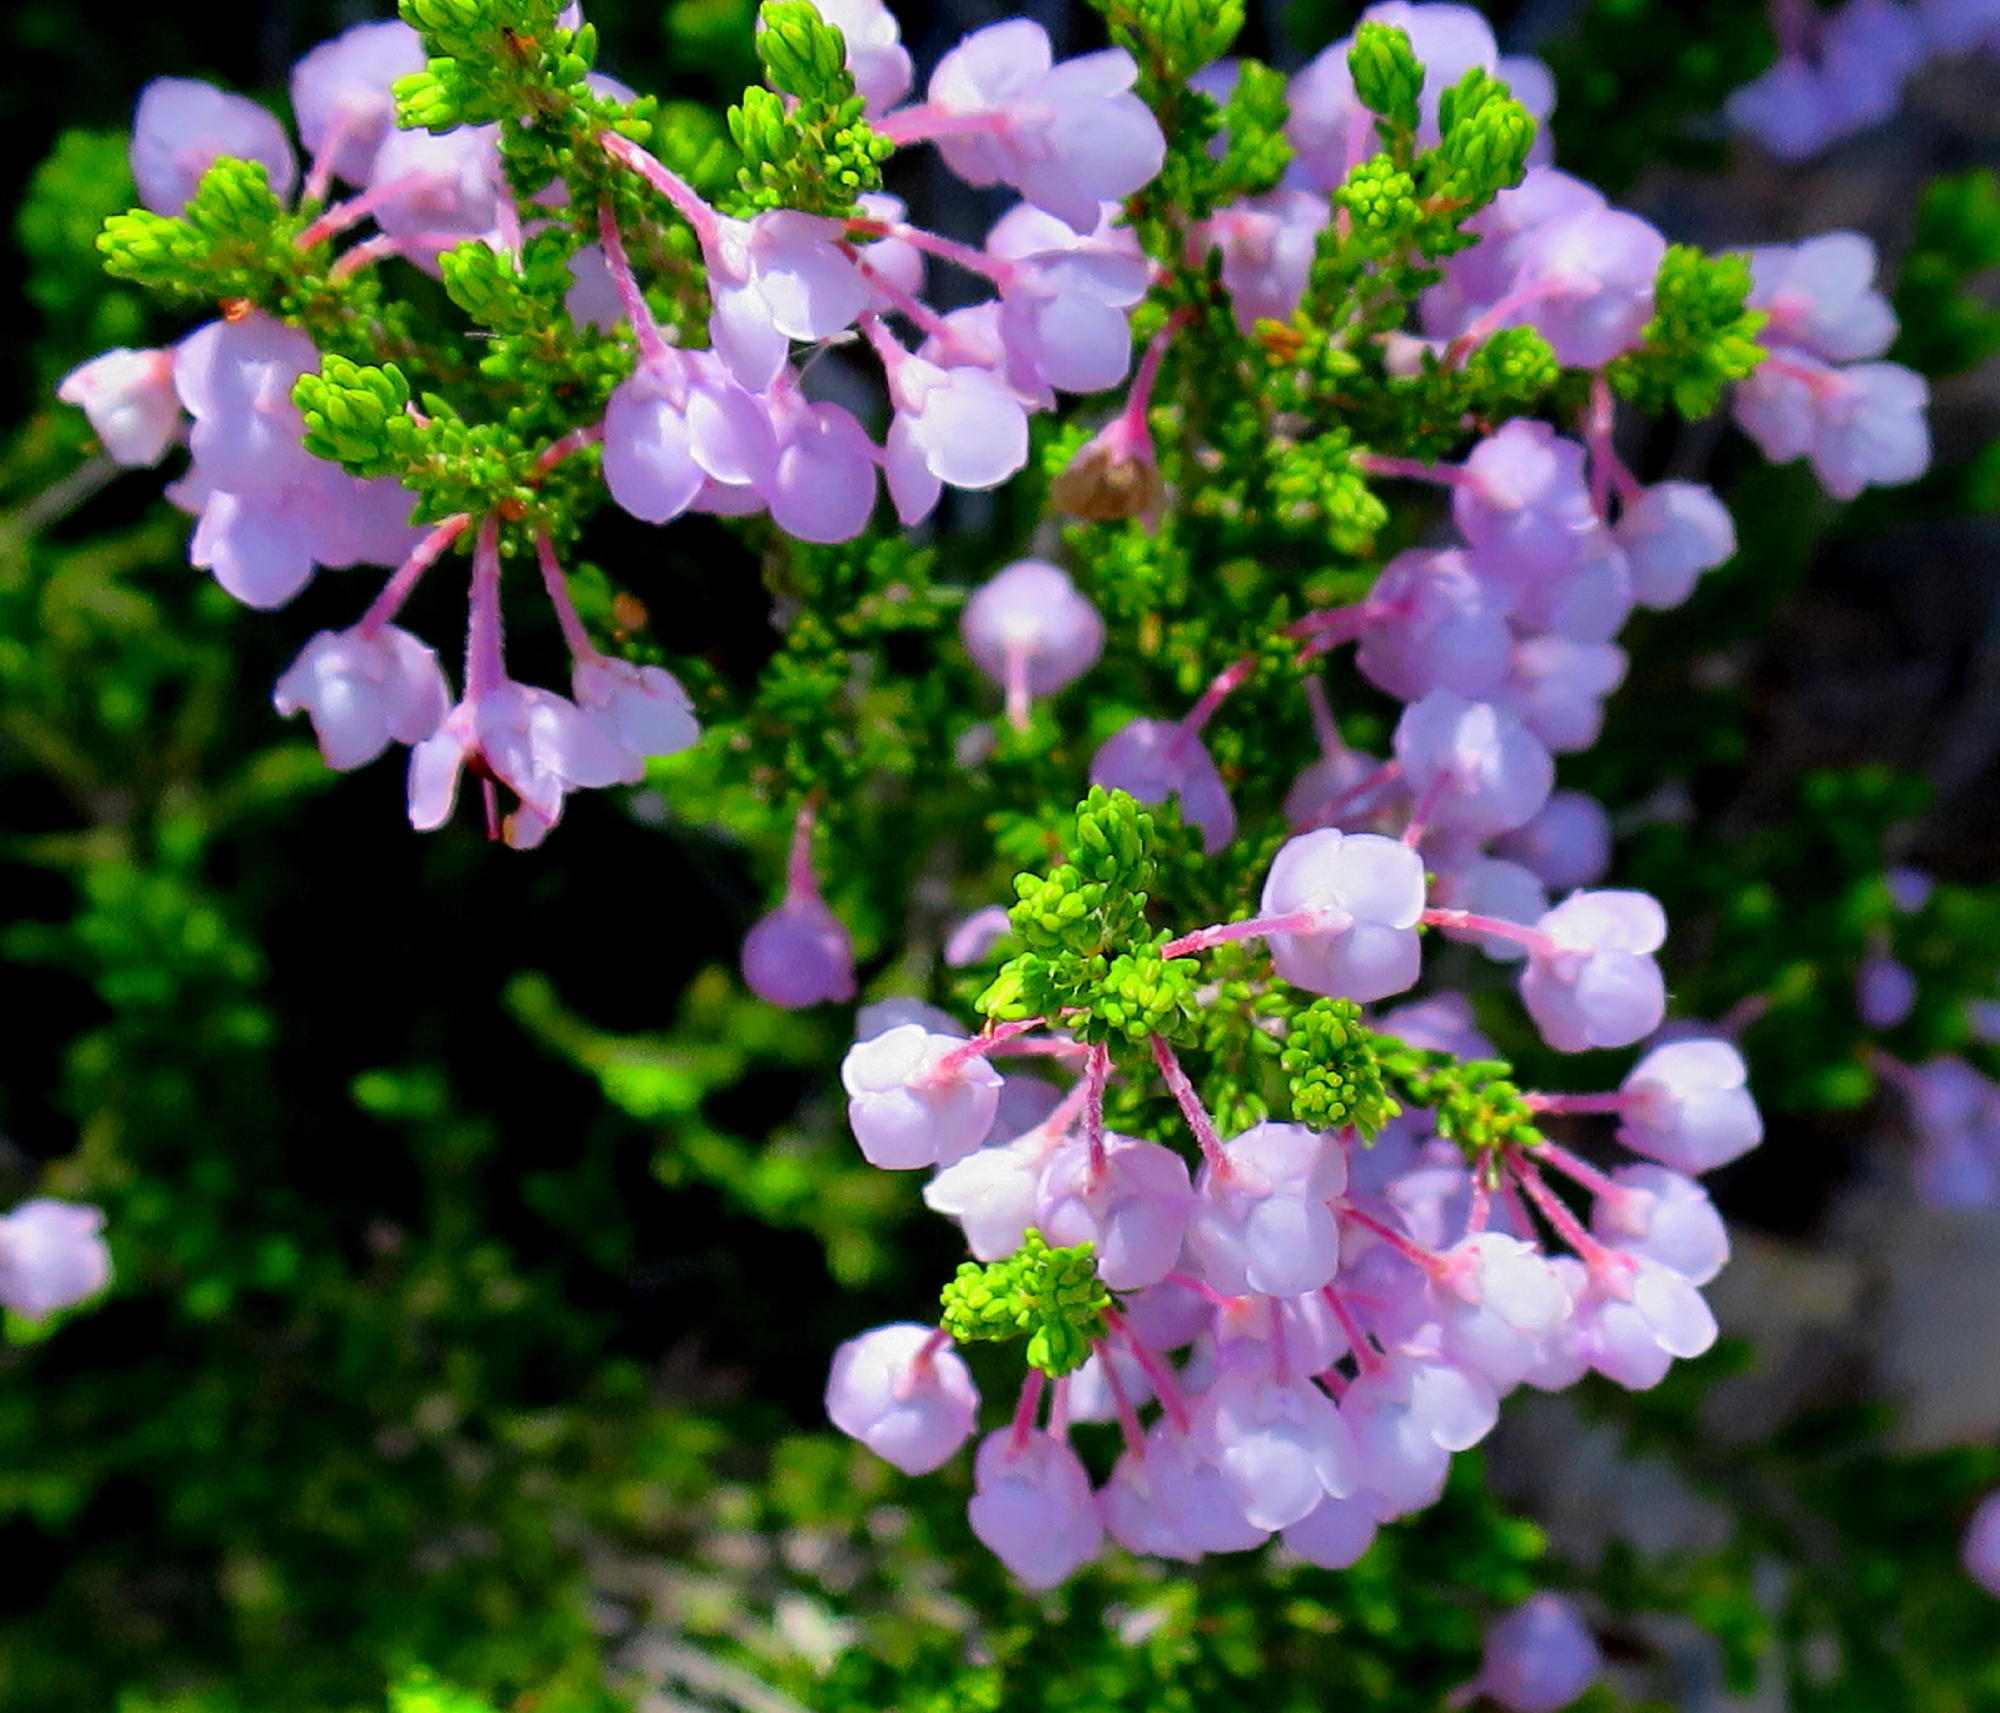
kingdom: Plantae
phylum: Tracheophyta
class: Magnoliopsida
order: Ericales
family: Ericaceae
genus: Erica
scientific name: Erica newdigatei
